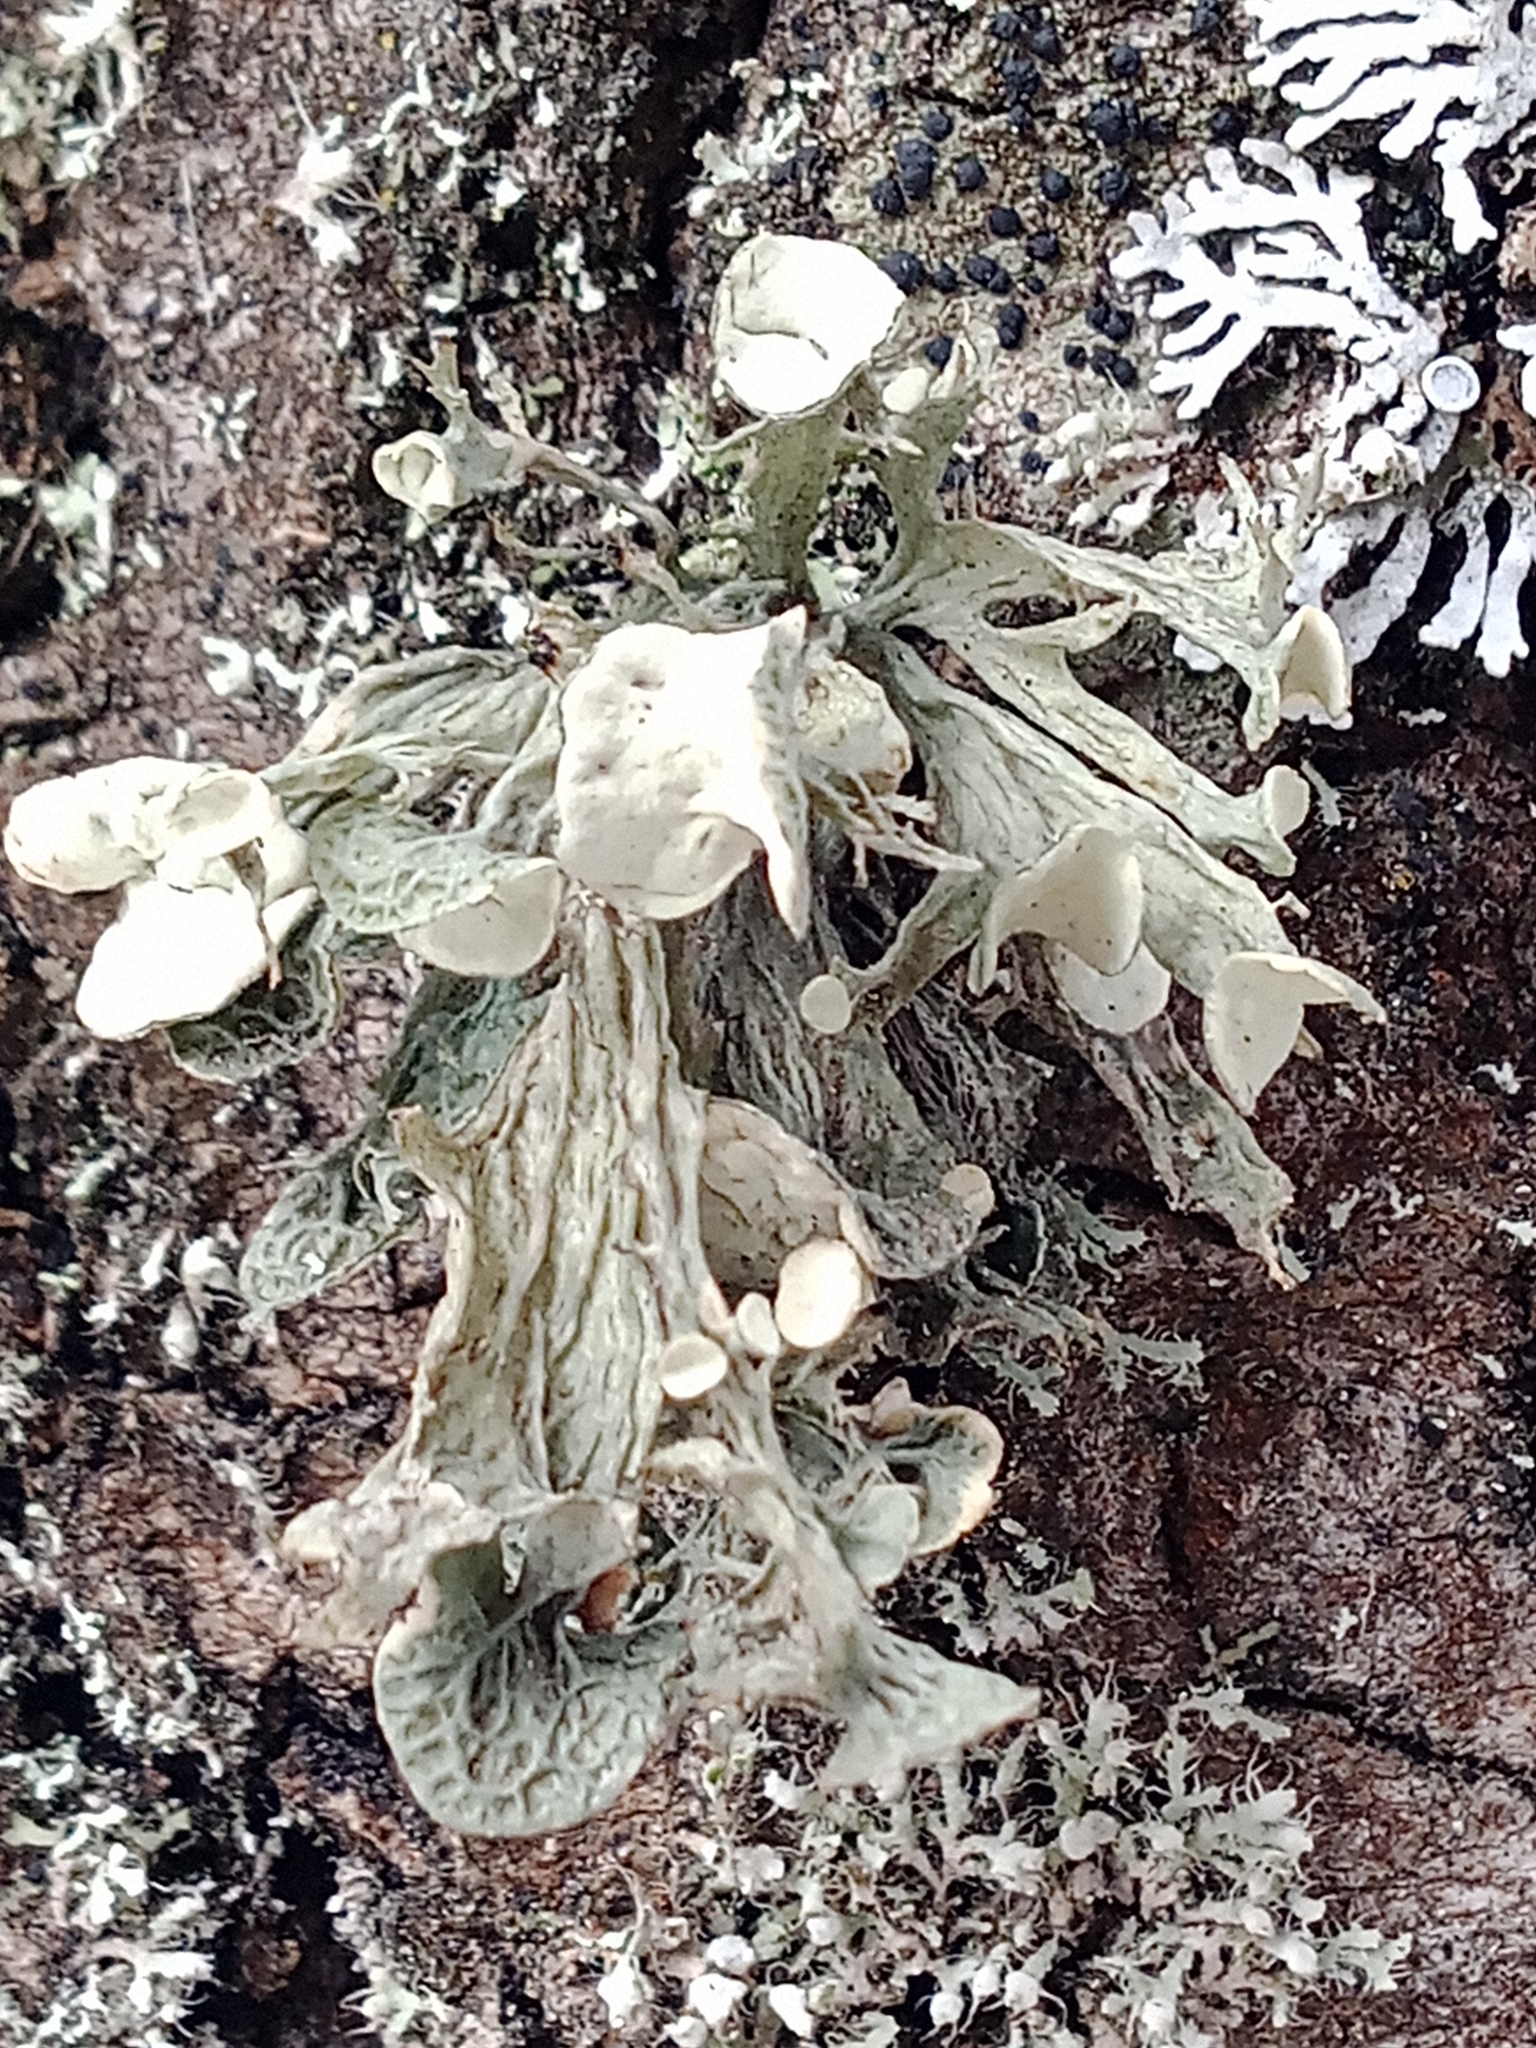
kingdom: Fungi
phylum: Ascomycota
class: Lecanoromycetes
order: Lecanorales
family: Ramalinaceae
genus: Ramalina
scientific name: Ramalina fastigiata
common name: Dotted ribbon lichen
